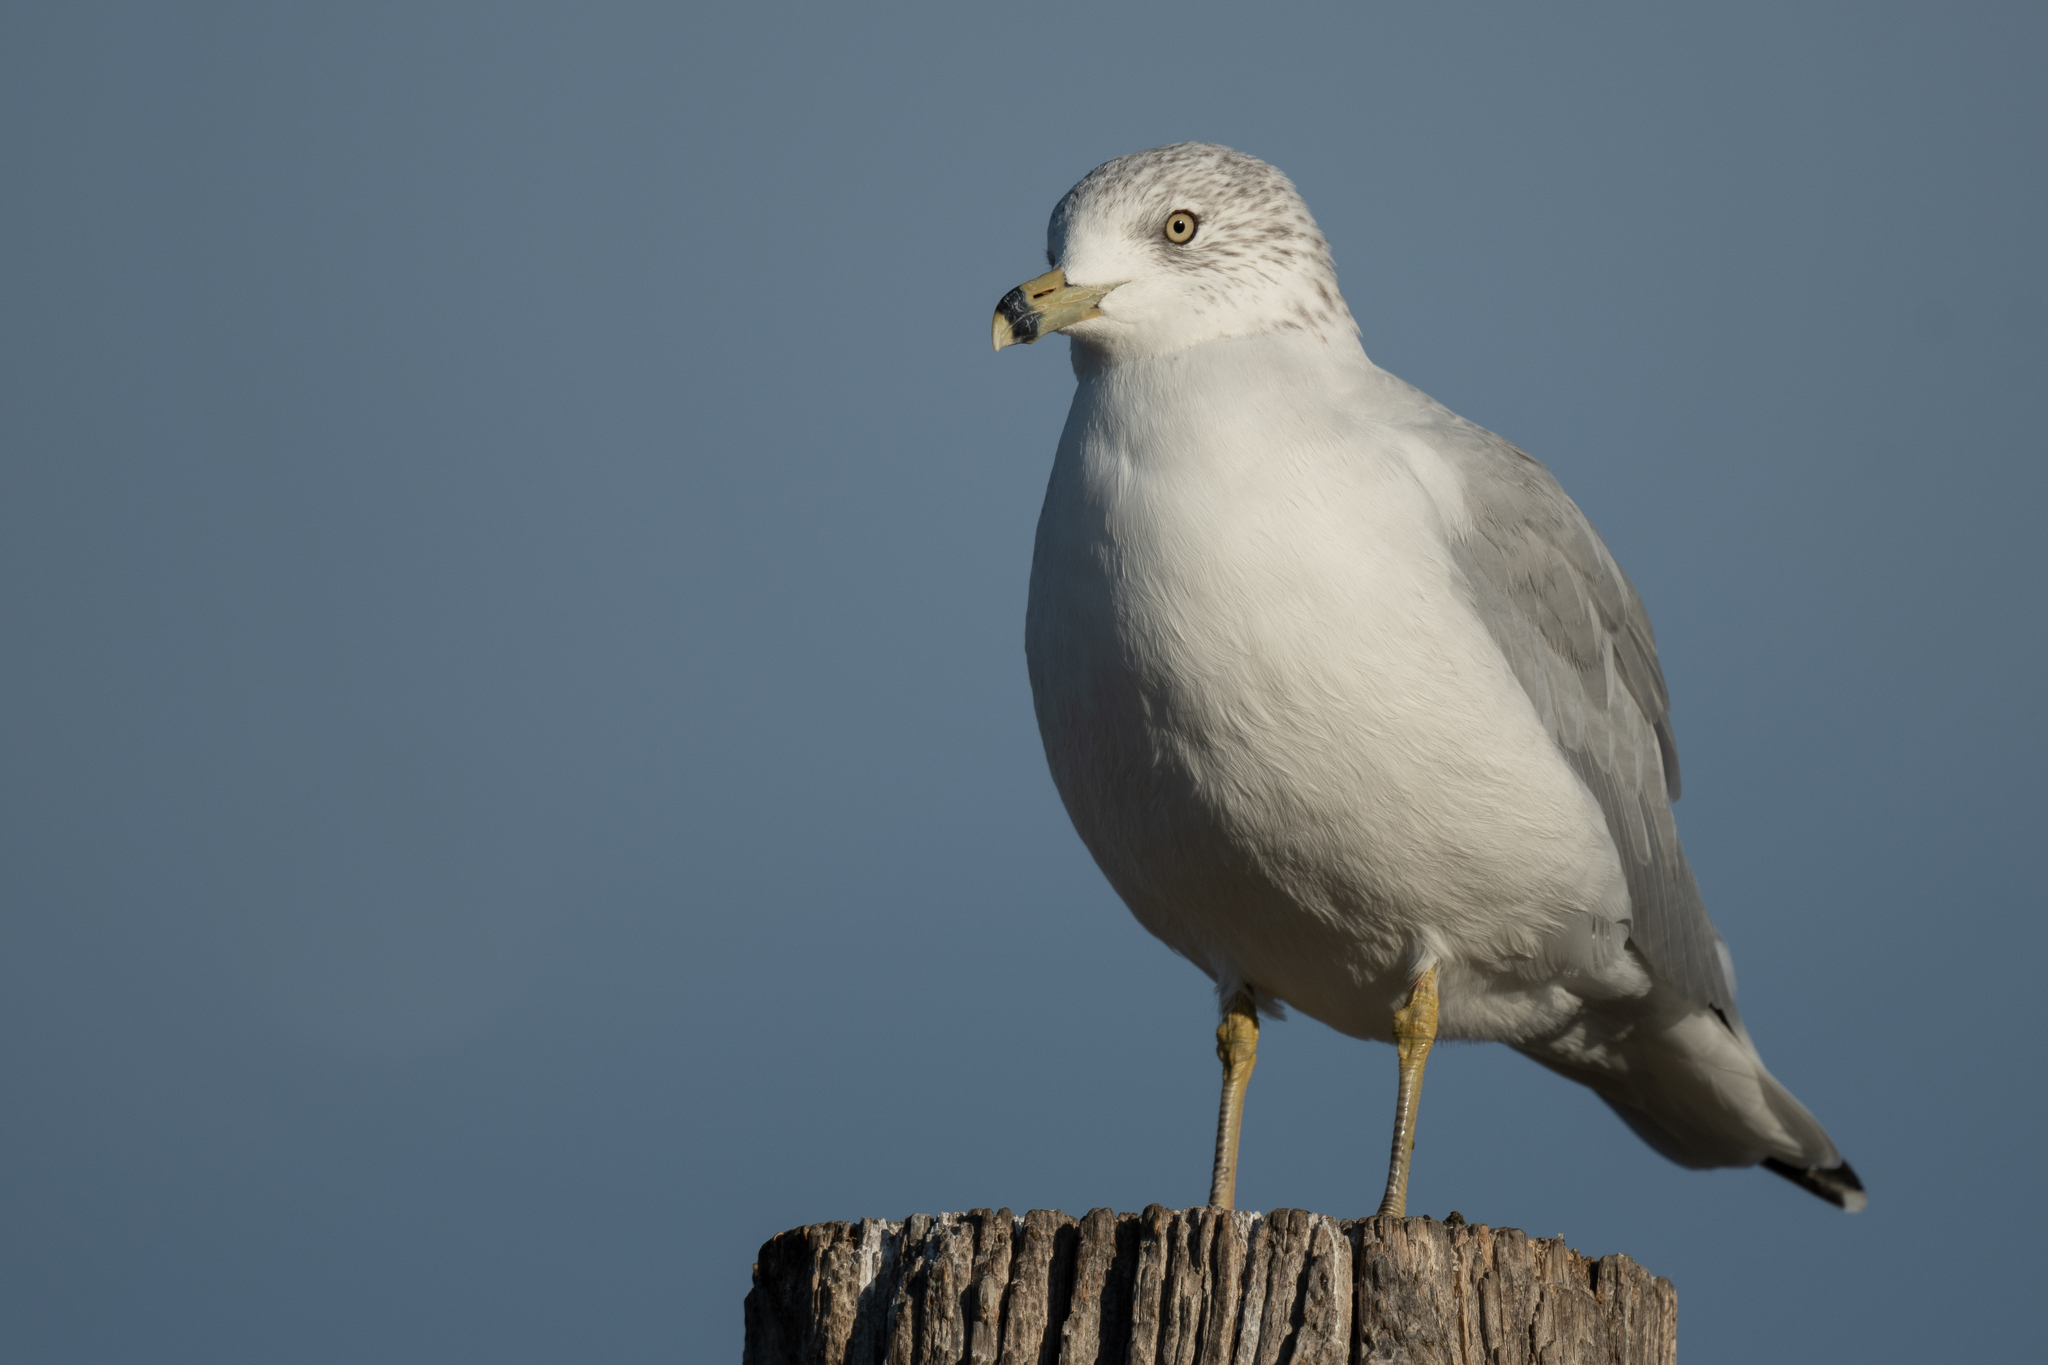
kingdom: Animalia
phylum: Chordata
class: Aves
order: Charadriiformes
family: Laridae
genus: Larus
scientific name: Larus delawarensis
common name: Ring-billed gull
